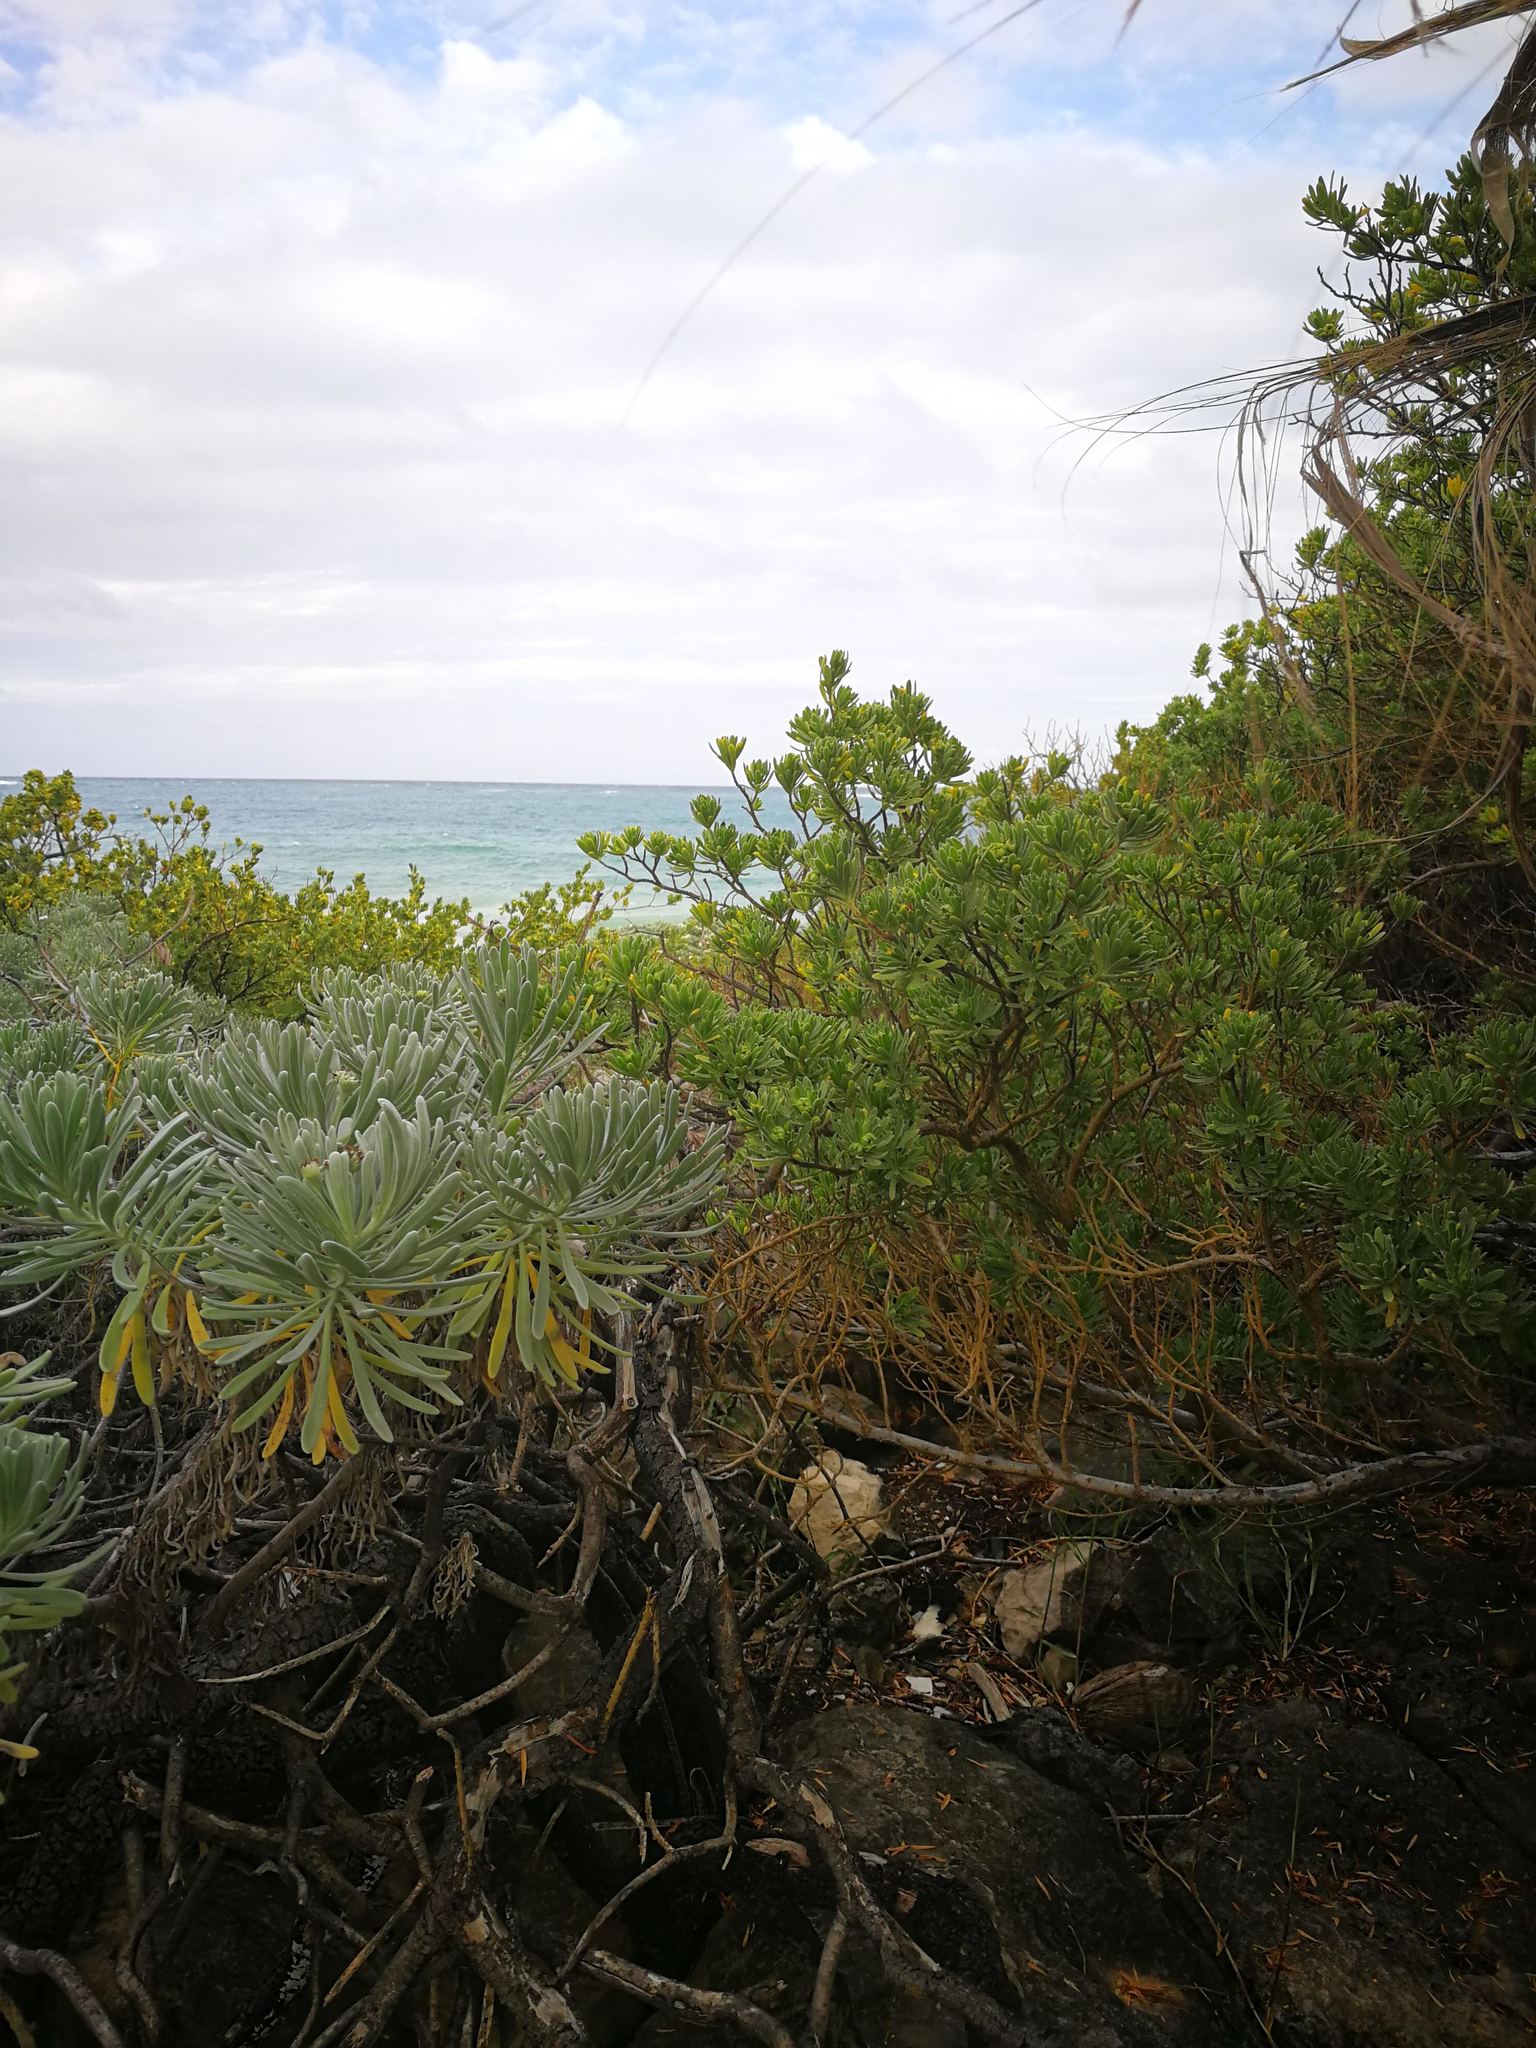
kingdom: Plantae
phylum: Tracheophyta
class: Magnoliopsida
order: Fabales
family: Surianaceae
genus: Suriana
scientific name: Suriana maritima
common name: Bay-cedar
